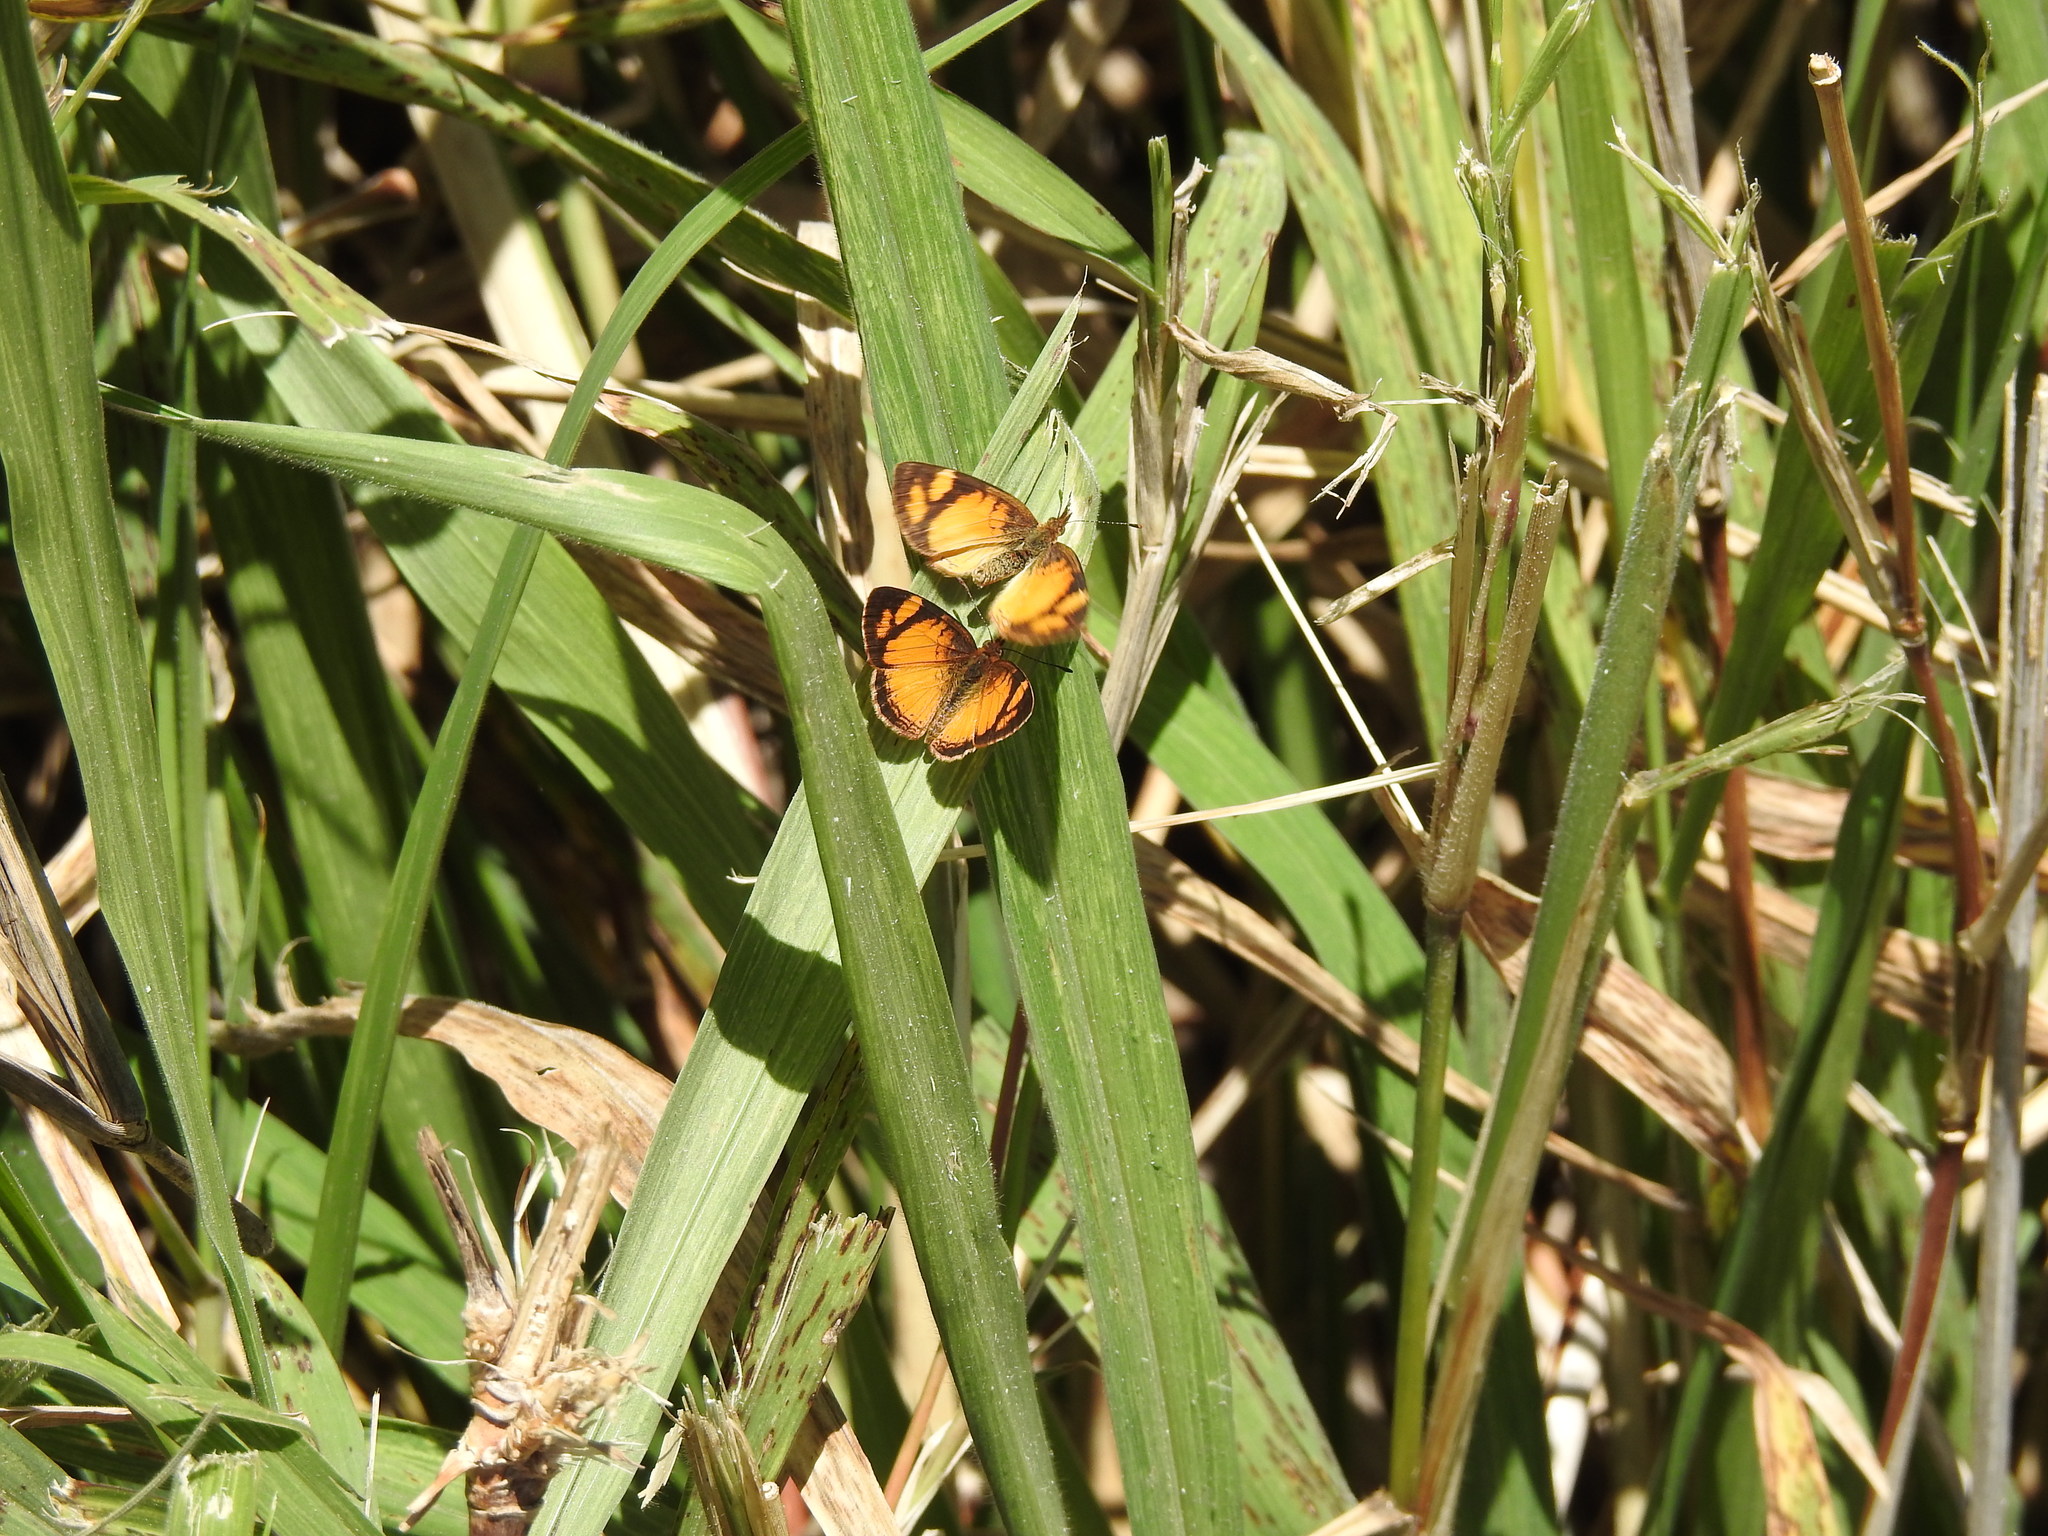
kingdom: Animalia
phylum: Arthropoda
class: Insecta
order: Lepidoptera
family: Nymphalidae
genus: Tegosa
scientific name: Tegosa claudina
